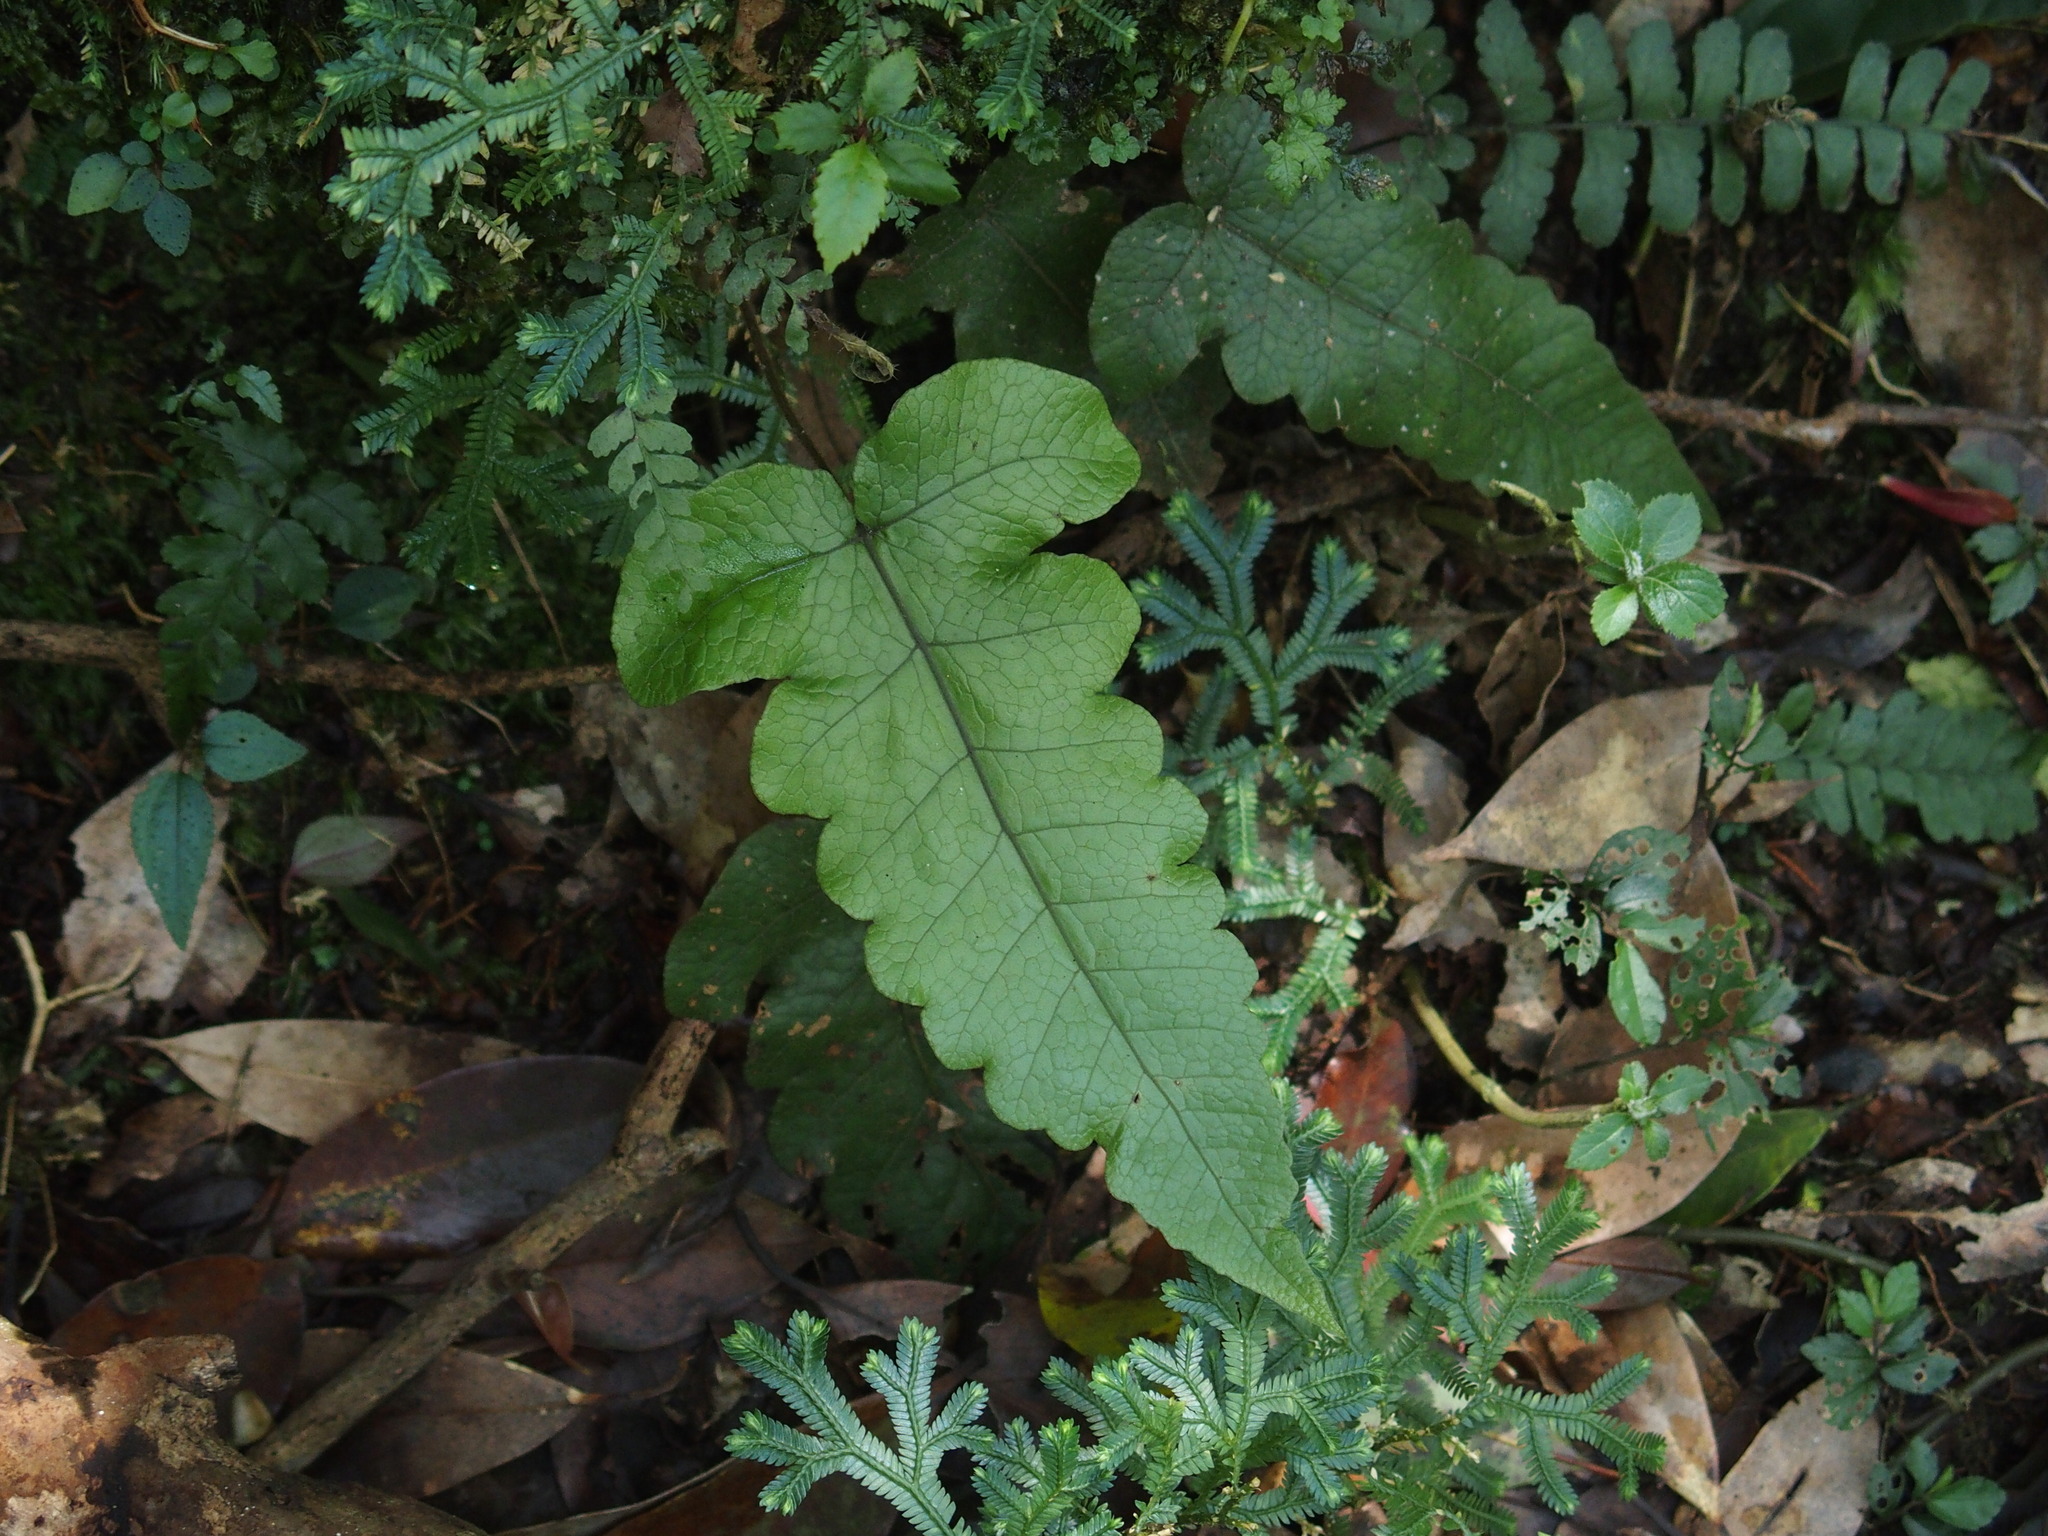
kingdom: Plantae
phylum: Tracheophyta
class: Polypodiopsida
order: Polypodiales
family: Thelypteridaceae
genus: Stegnogramma
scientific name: Stegnogramma wilfordii
